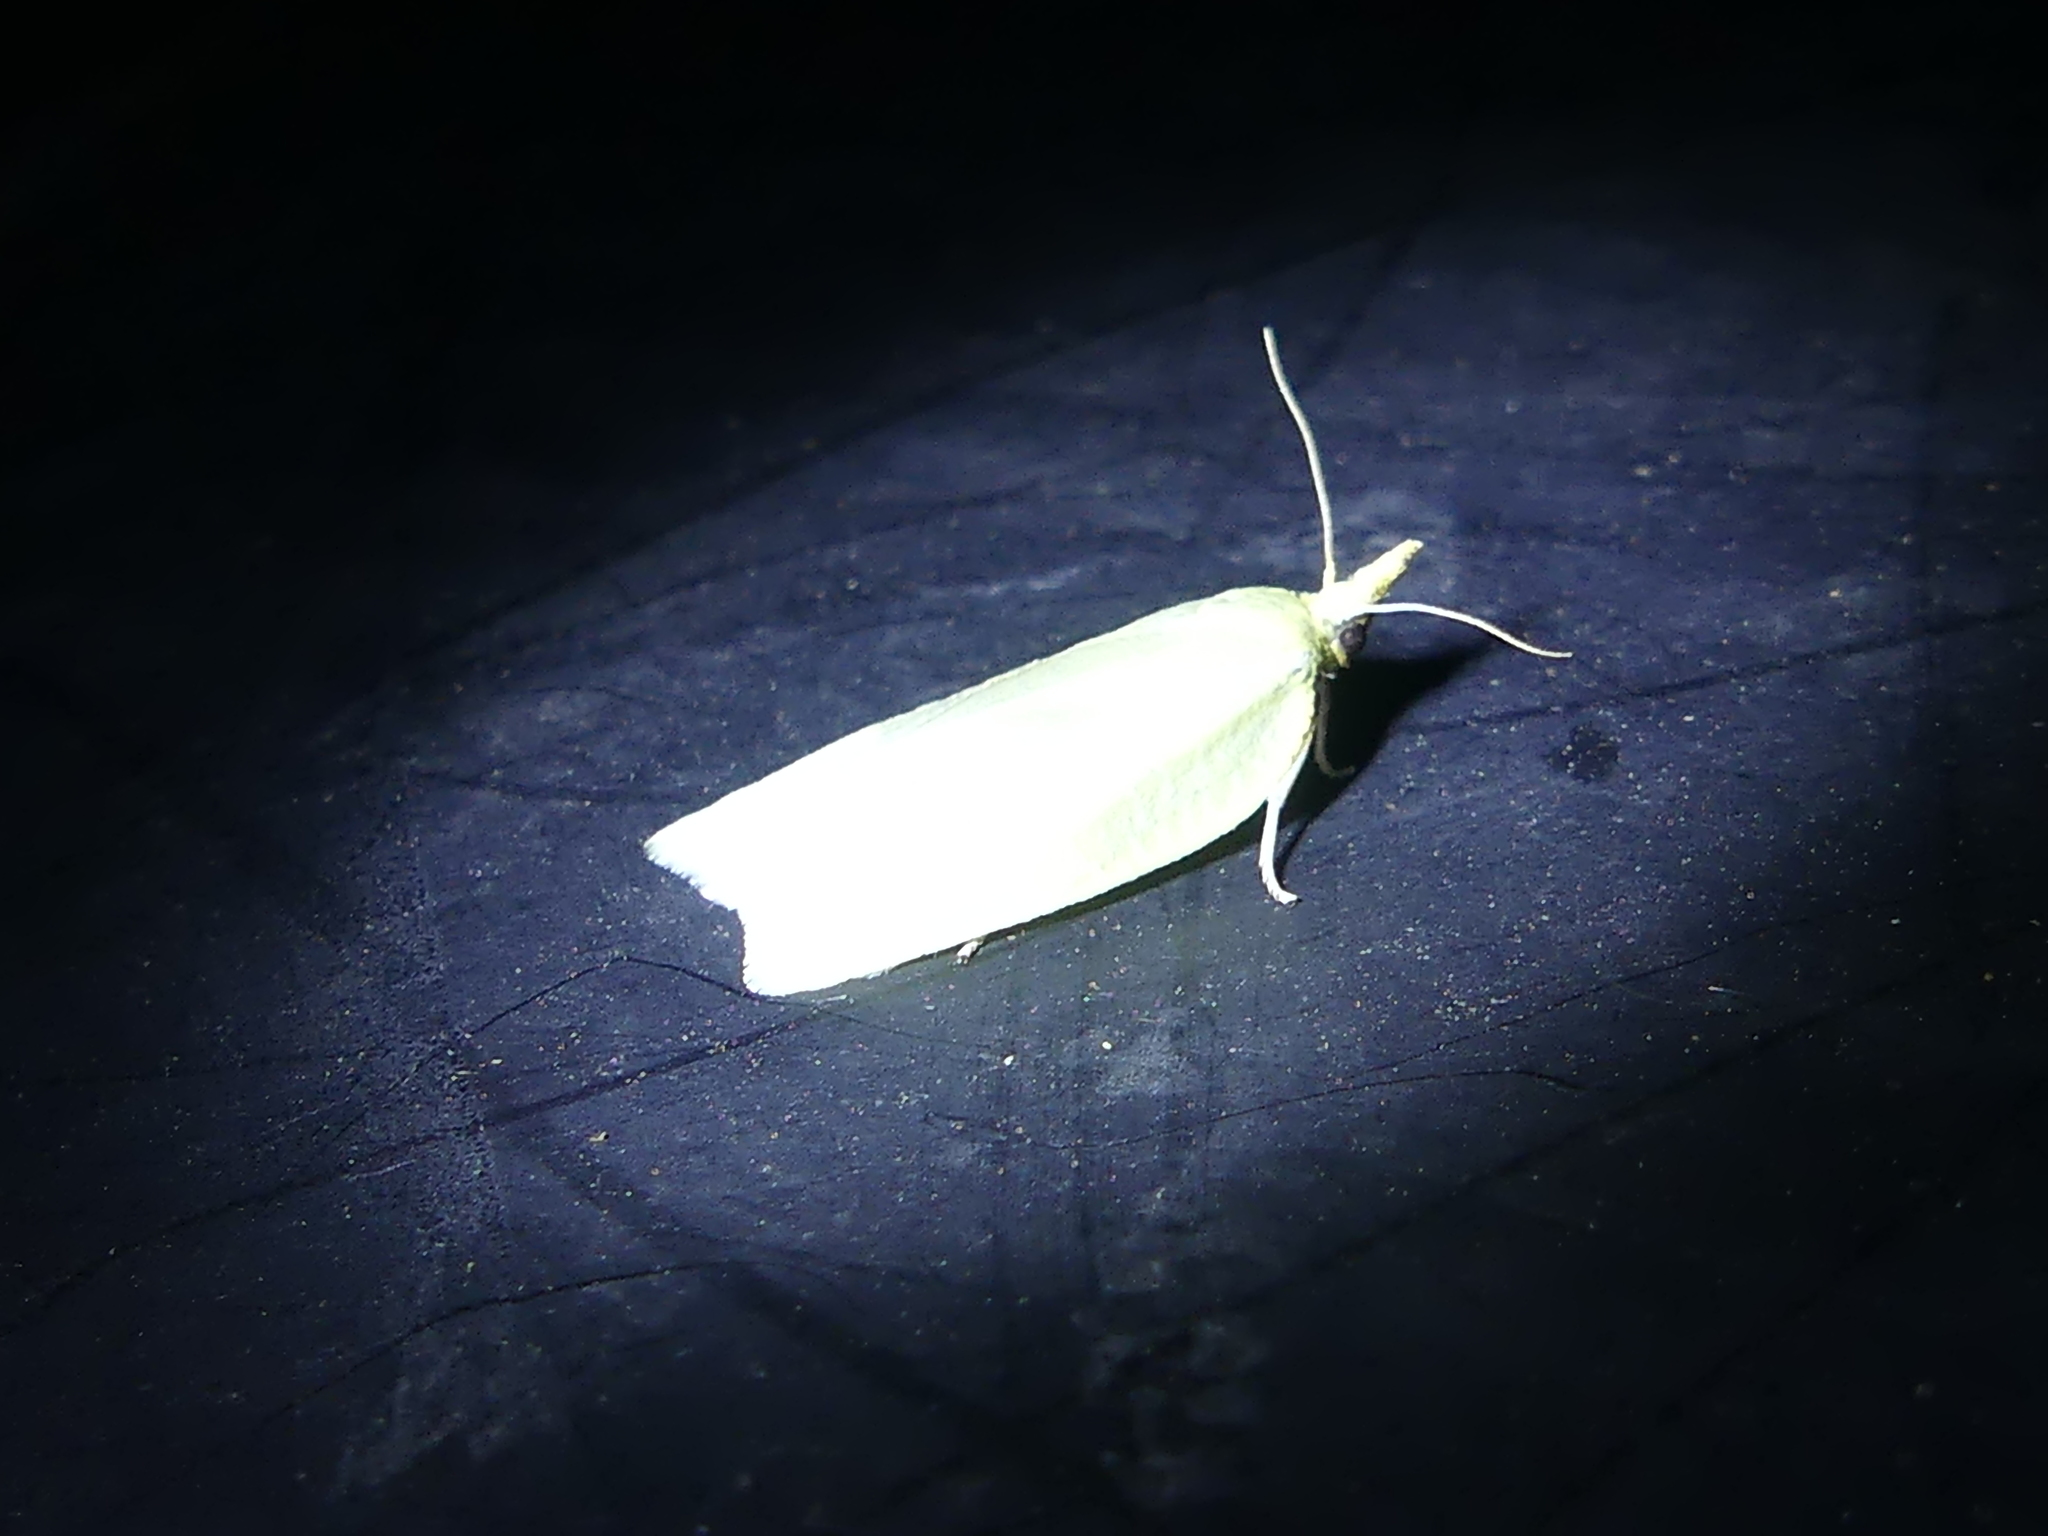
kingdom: Animalia
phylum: Arthropoda
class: Insecta
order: Lepidoptera
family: Tortricidae
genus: Cenopis
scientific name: Cenopis pettitana
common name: Maple-basswood leafroller moth
